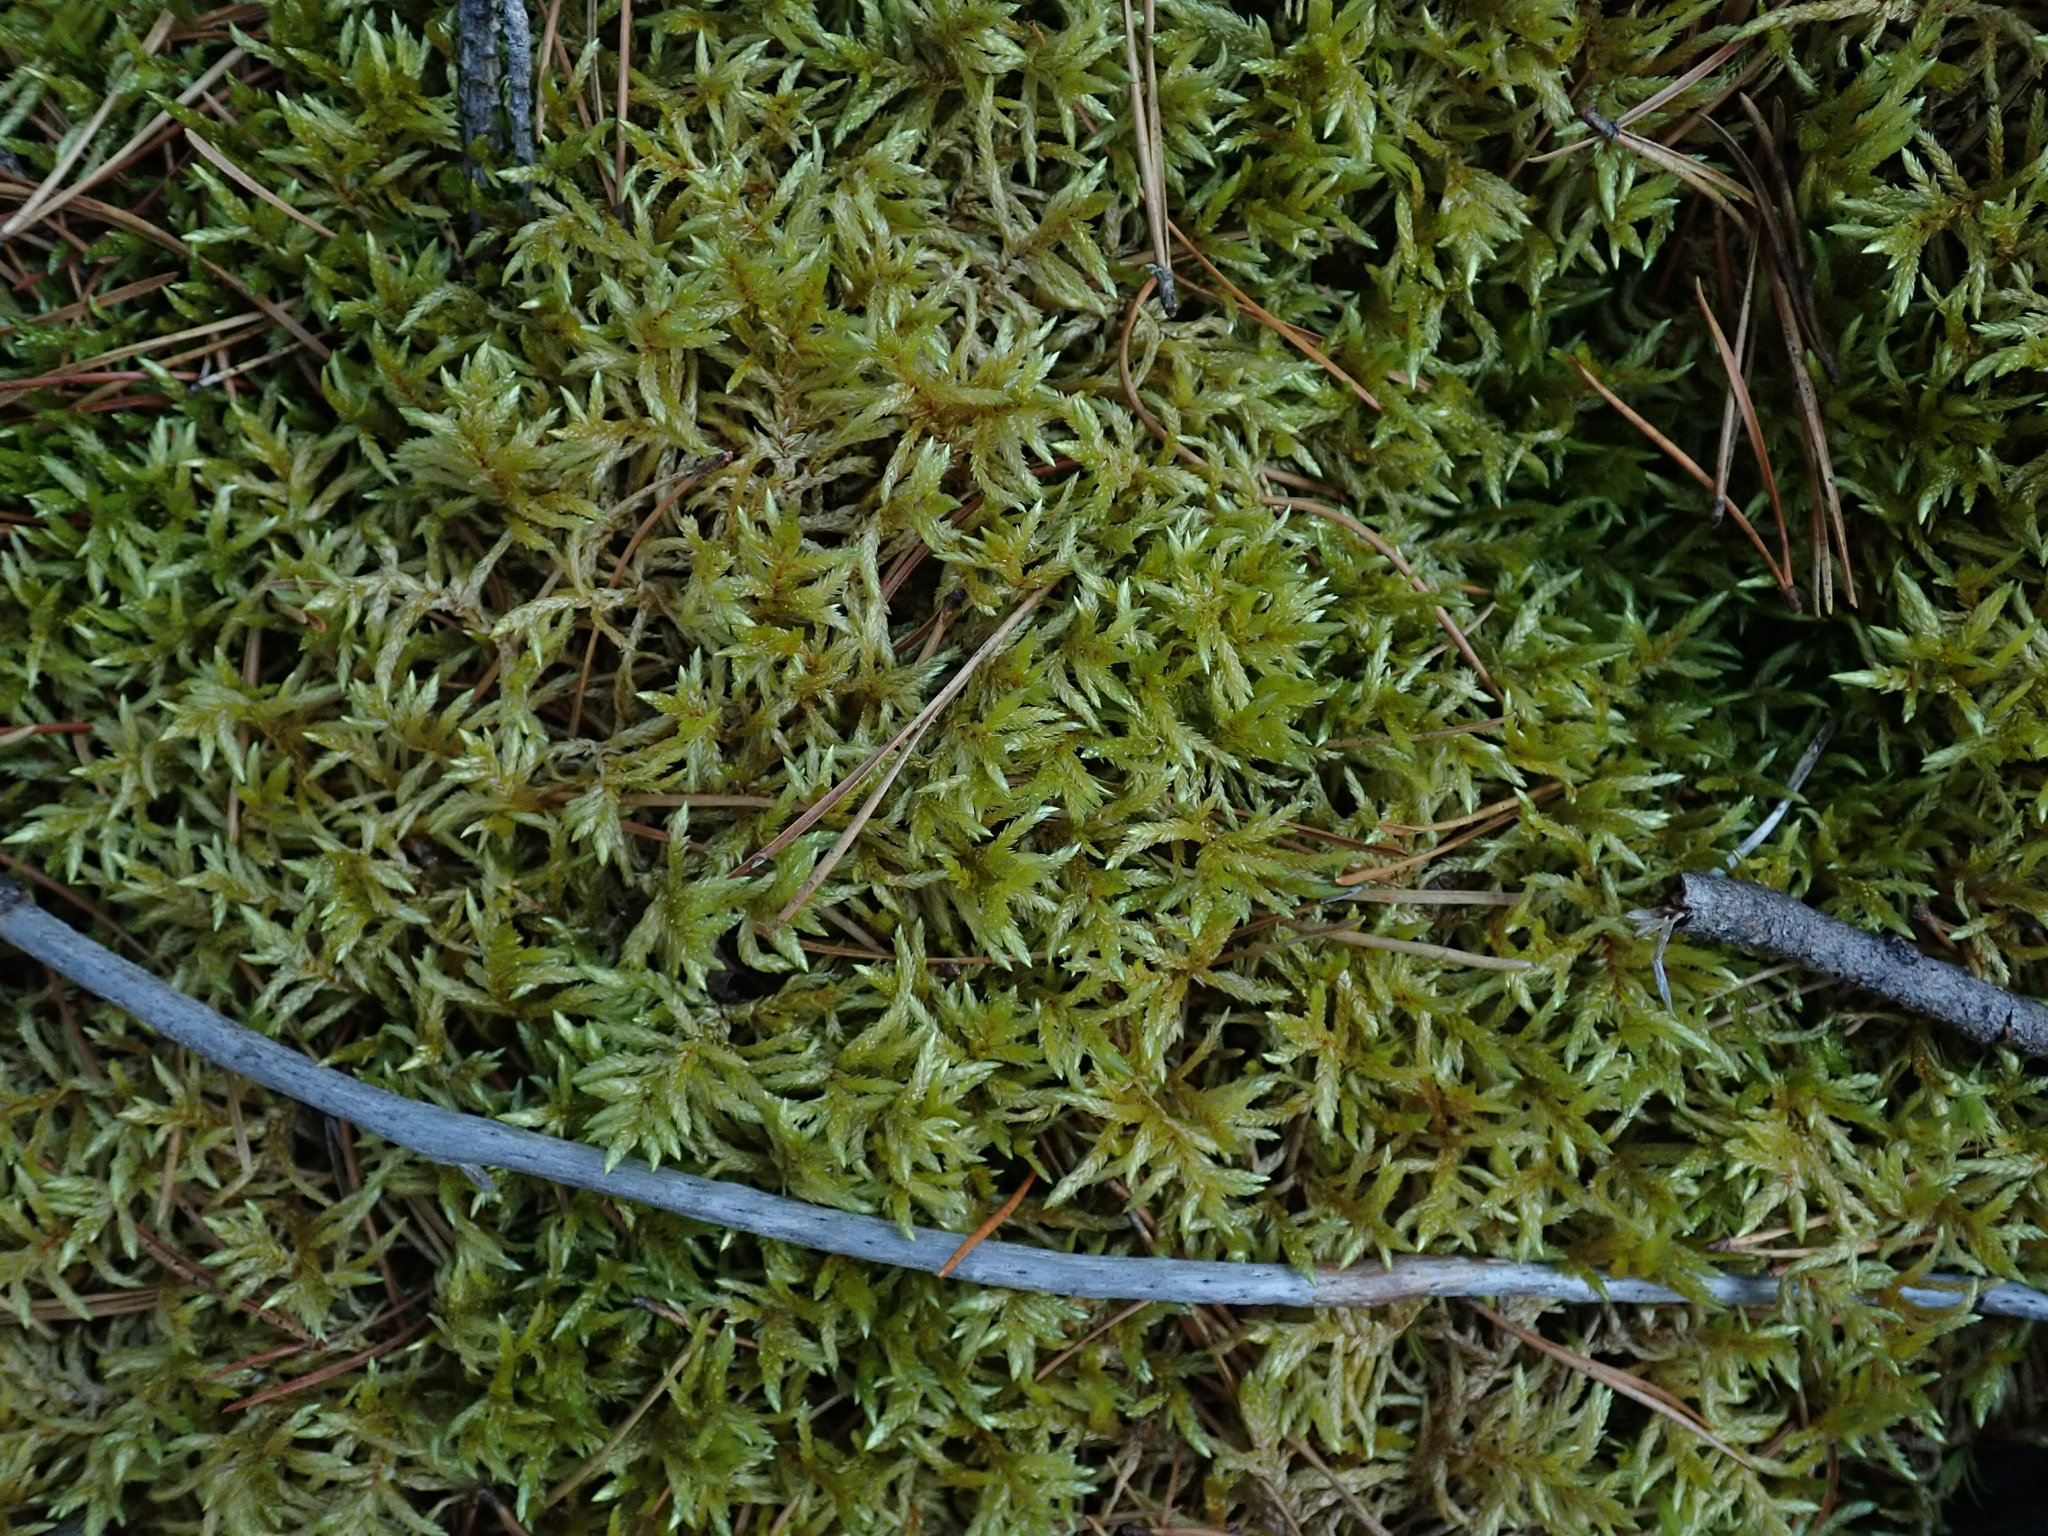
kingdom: Plantae
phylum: Bryophyta
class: Bryopsida
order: Hypnales
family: Hylocomiaceae
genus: Pleurozium
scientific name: Pleurozium schreberi
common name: Red-stemmed feather moss
